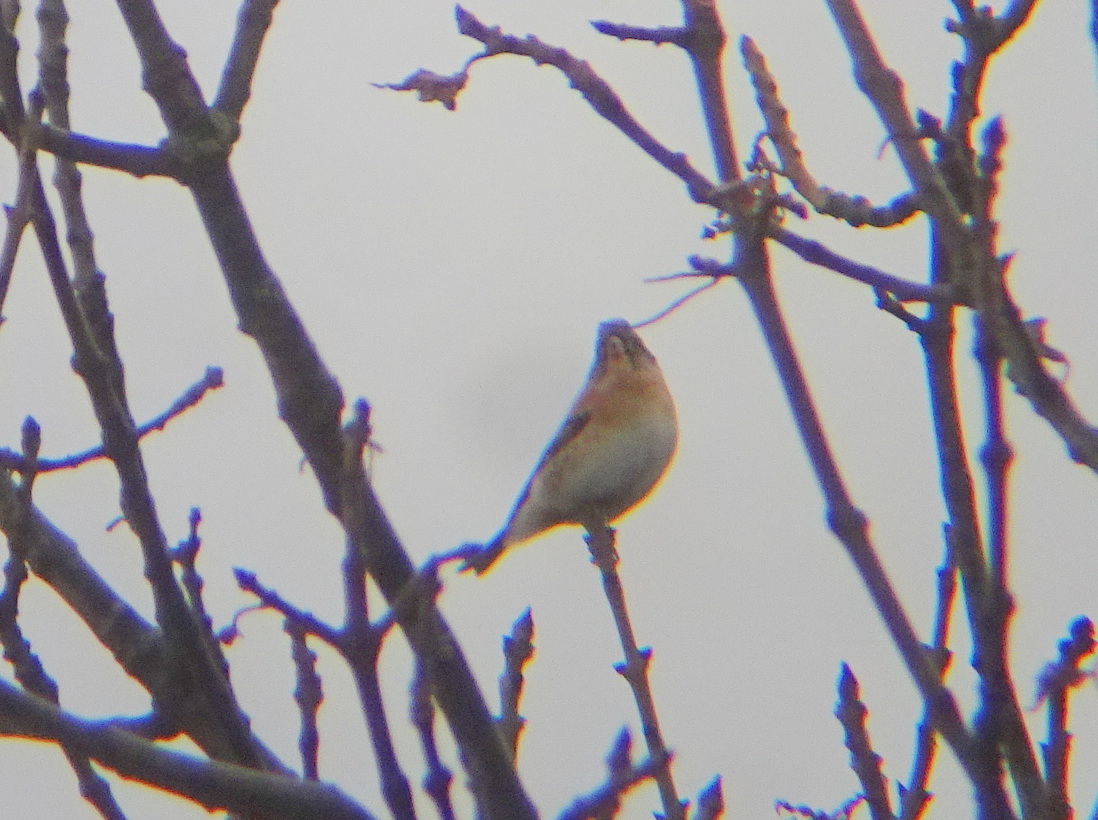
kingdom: Animalia
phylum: Chordata
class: Aves
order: Passeriformes
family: Fringillidae
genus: Fringilla
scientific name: Fringilla montifringilla
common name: Brambling
